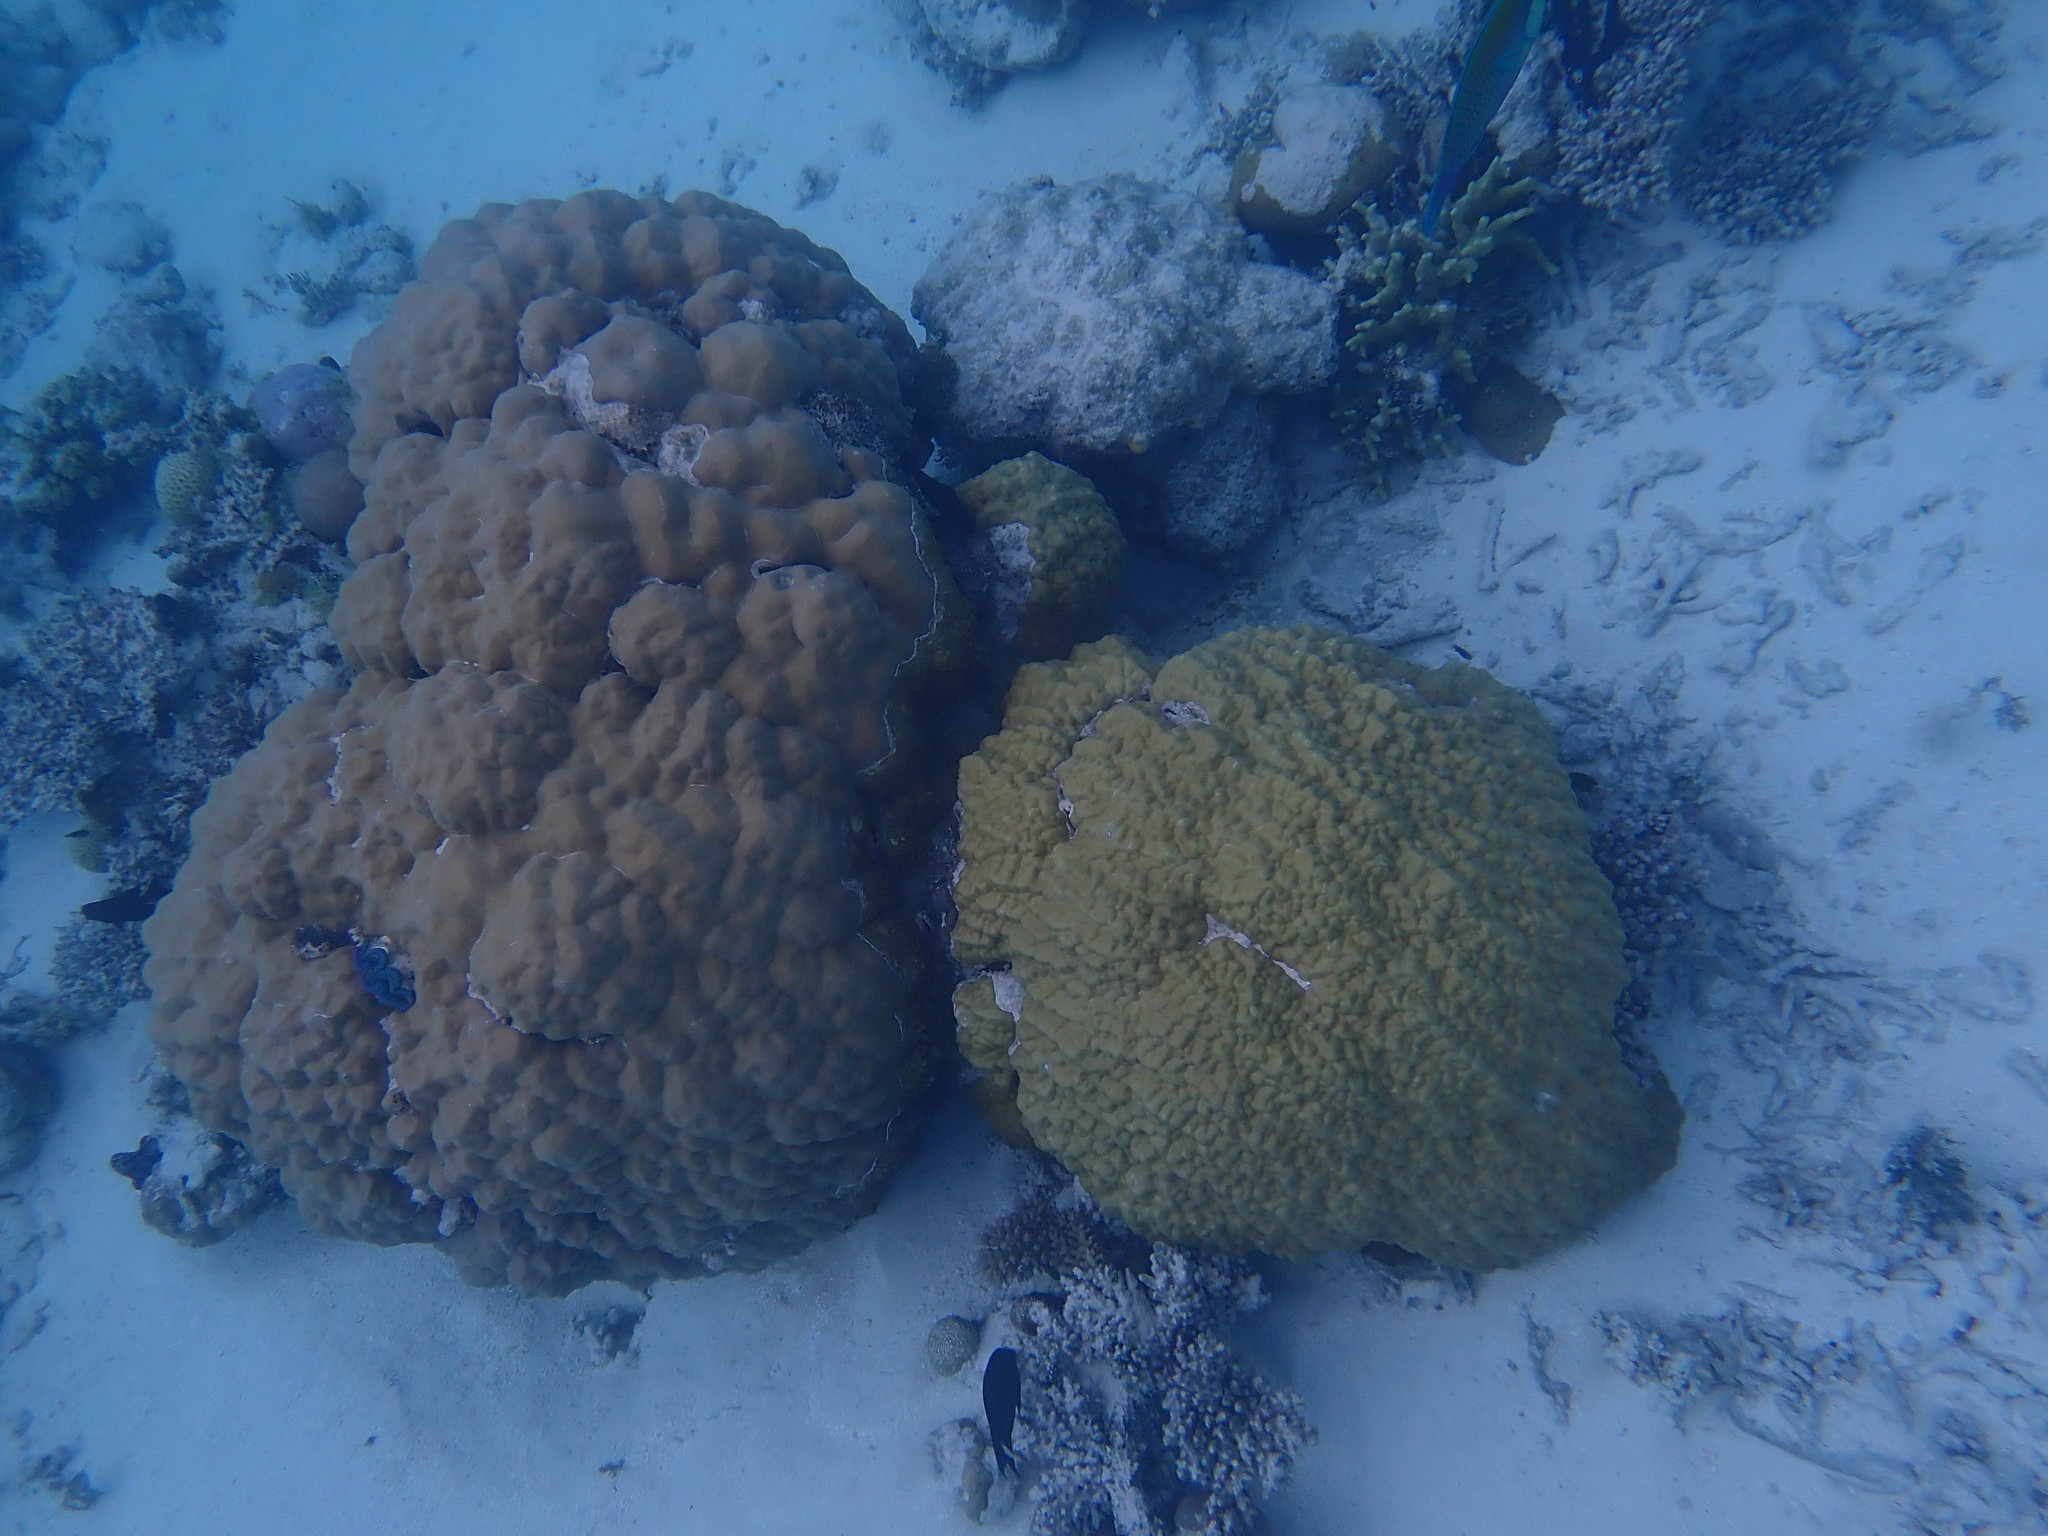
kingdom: Animalia
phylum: Cnidaria
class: Anthozoa
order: Scleractinia
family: Poritidae
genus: Porites
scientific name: Porites lobata
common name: Hump coral
